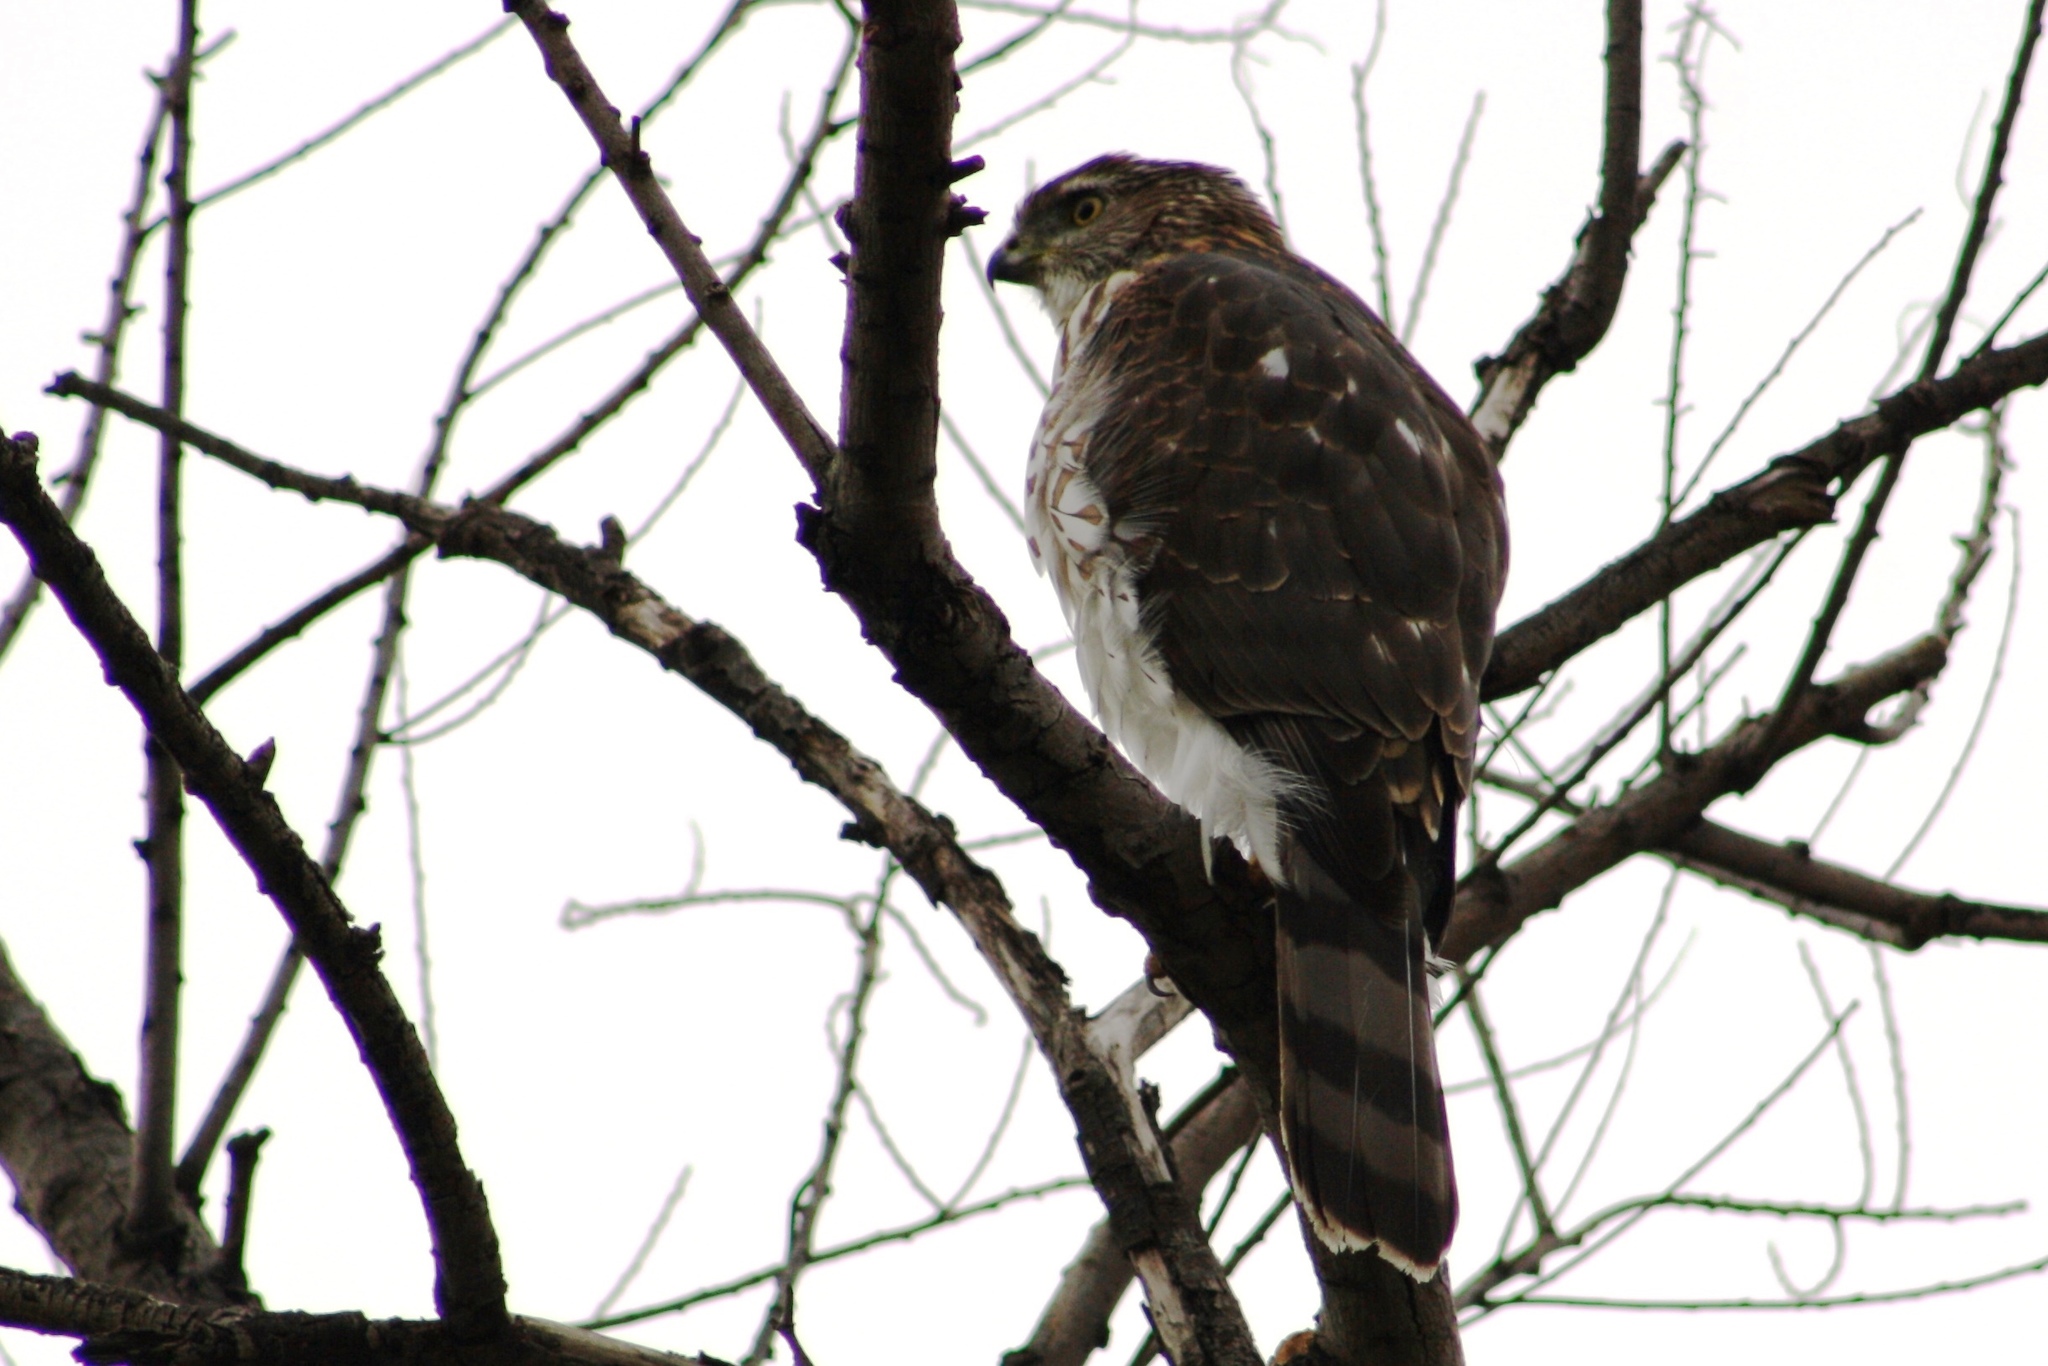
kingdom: Animalia
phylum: Chordata
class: Aves
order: Accipitriformes
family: Accipitridae
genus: Accipiter
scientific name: Accipiter cooperii
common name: Cooper's hawk
